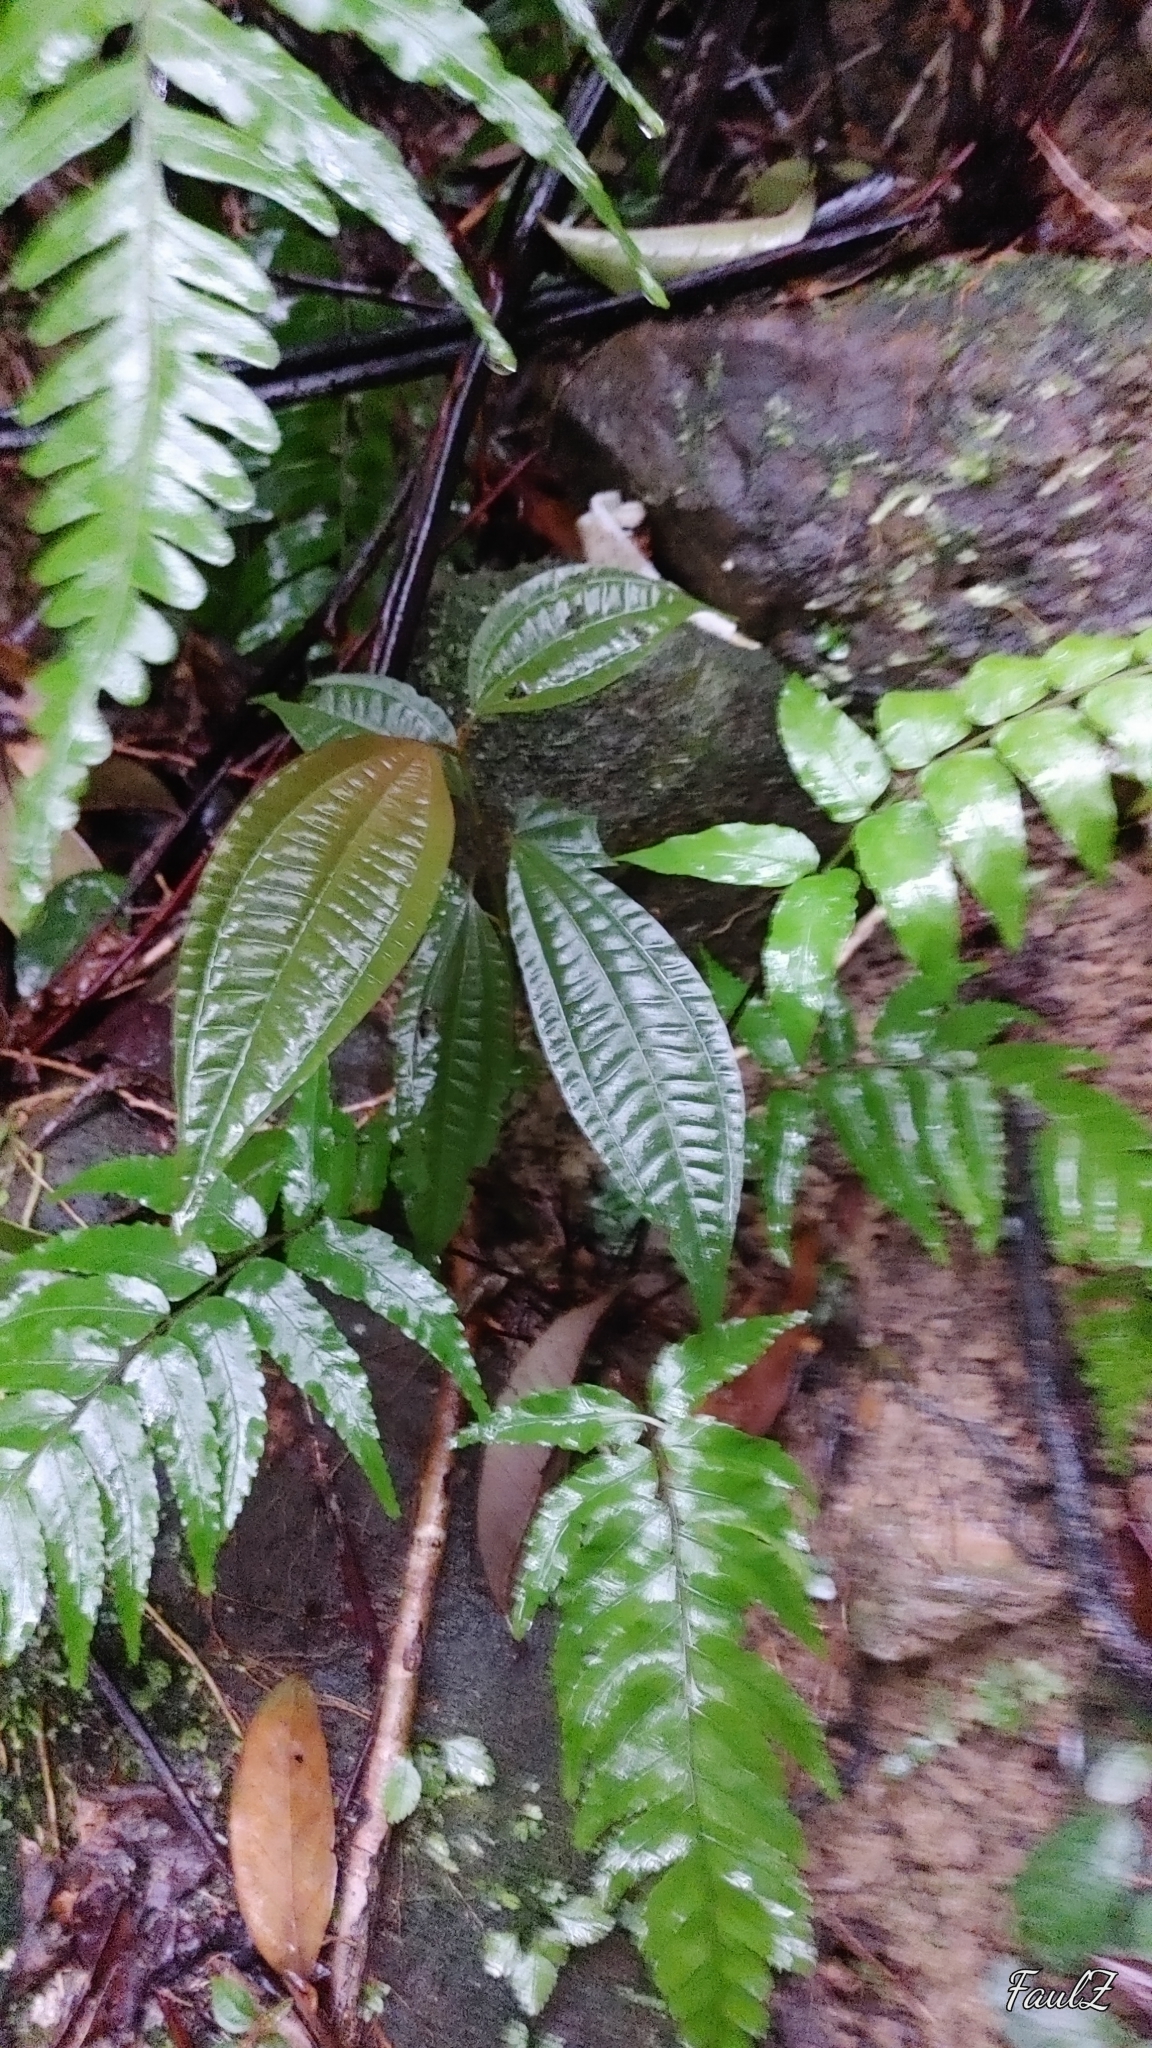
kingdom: Plantae
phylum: Tracheophyta
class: Magnoliopsida
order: Myrtales
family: Melastomataceae
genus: Blastus
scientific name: Blastus cochinchinensis
